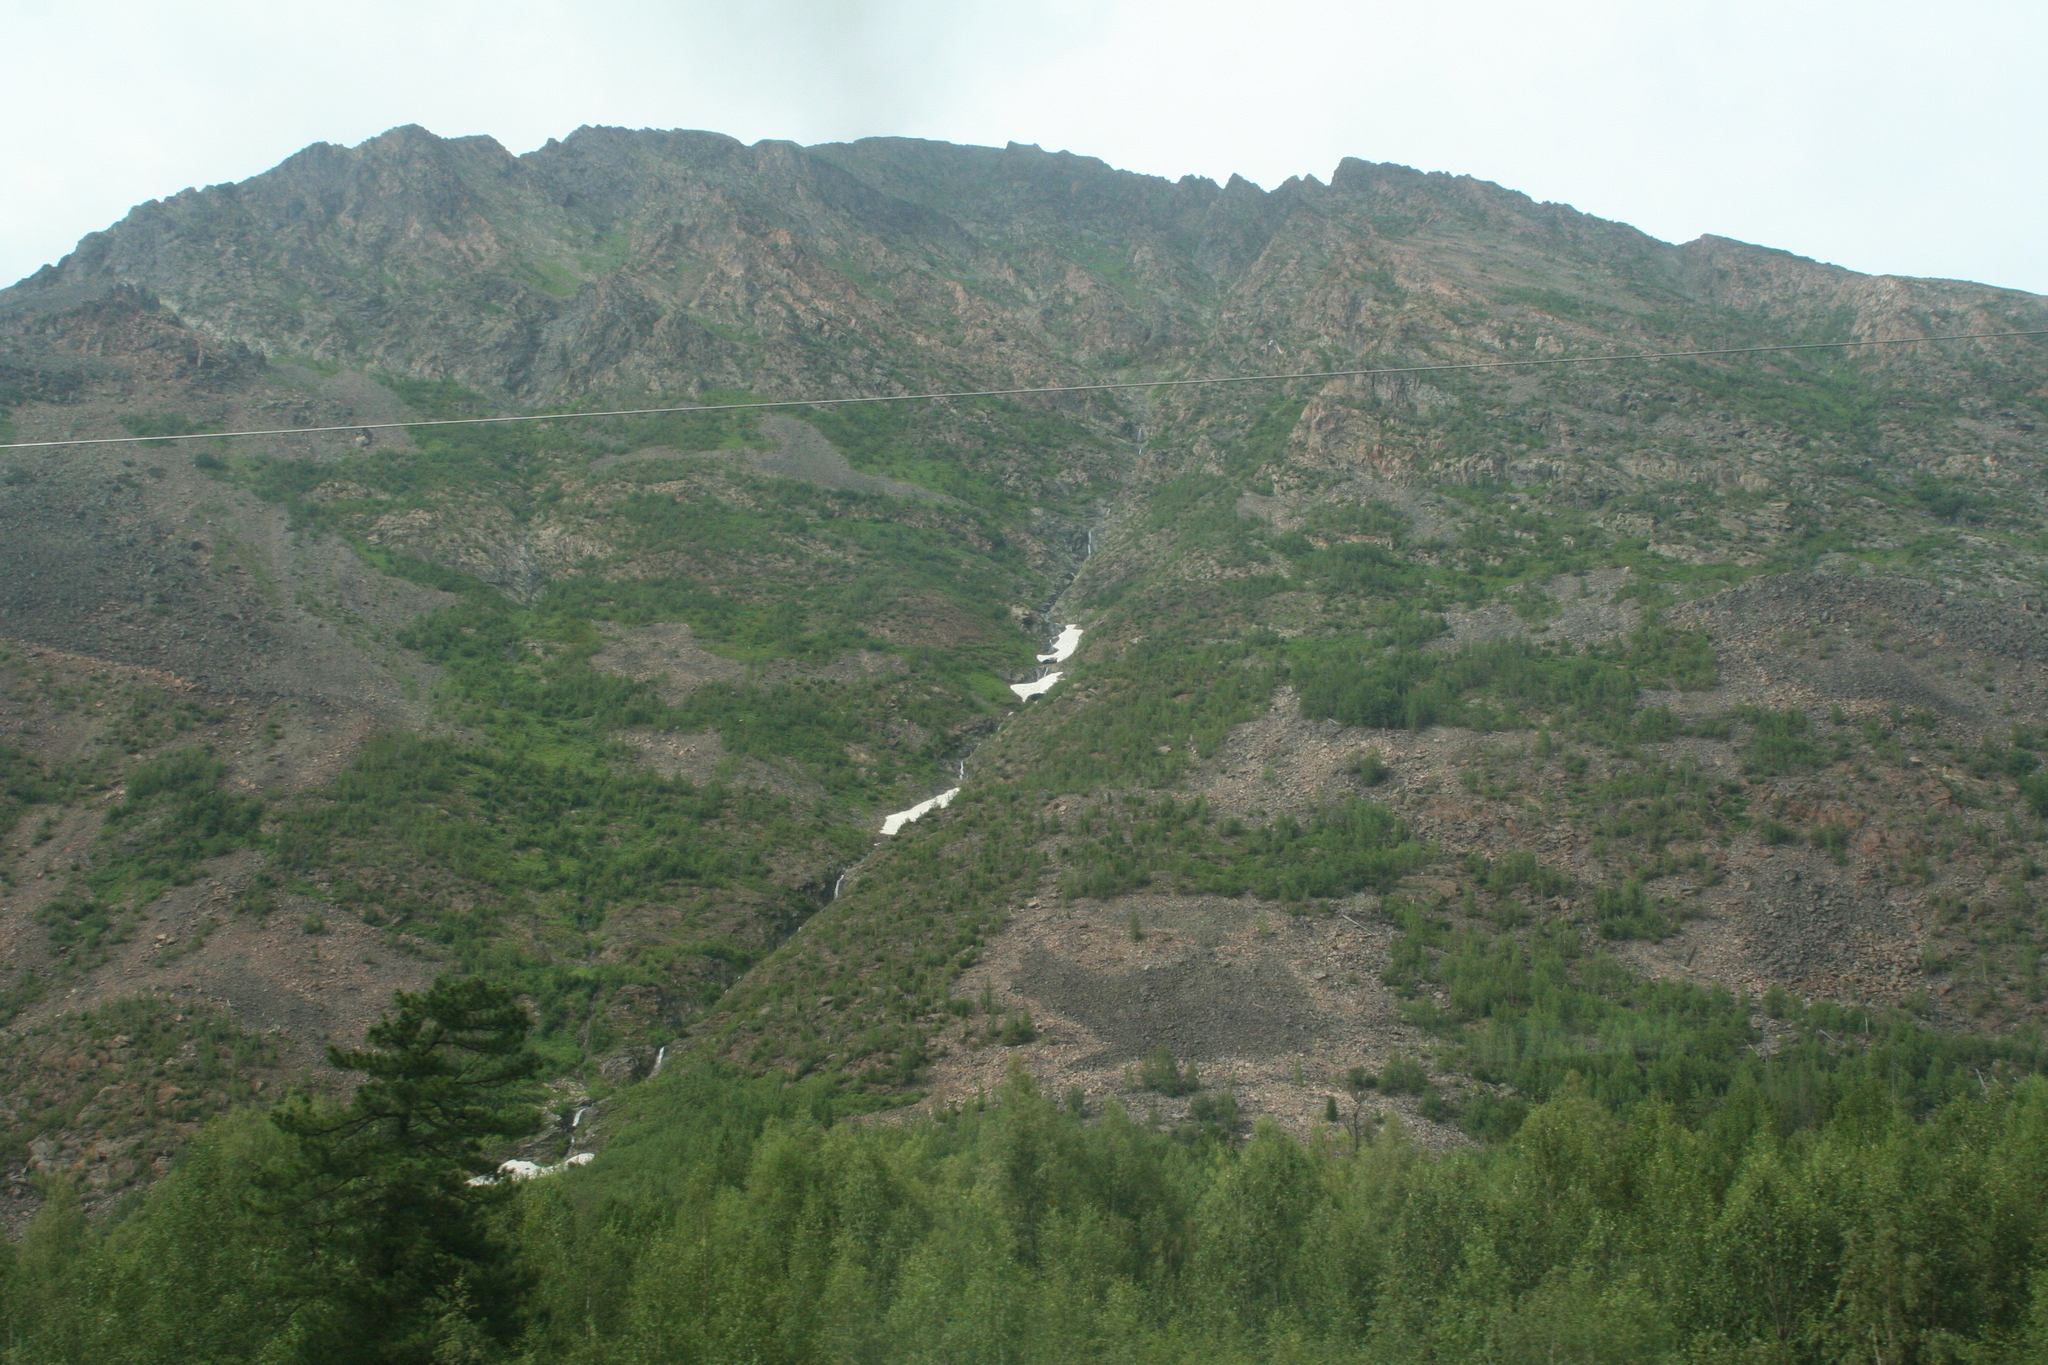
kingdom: Plantae
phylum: Tracheophyta
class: Pinopsida
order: Pinales
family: Pinaceae
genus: Pinus
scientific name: Pinus sibirica
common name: Siberian pine
